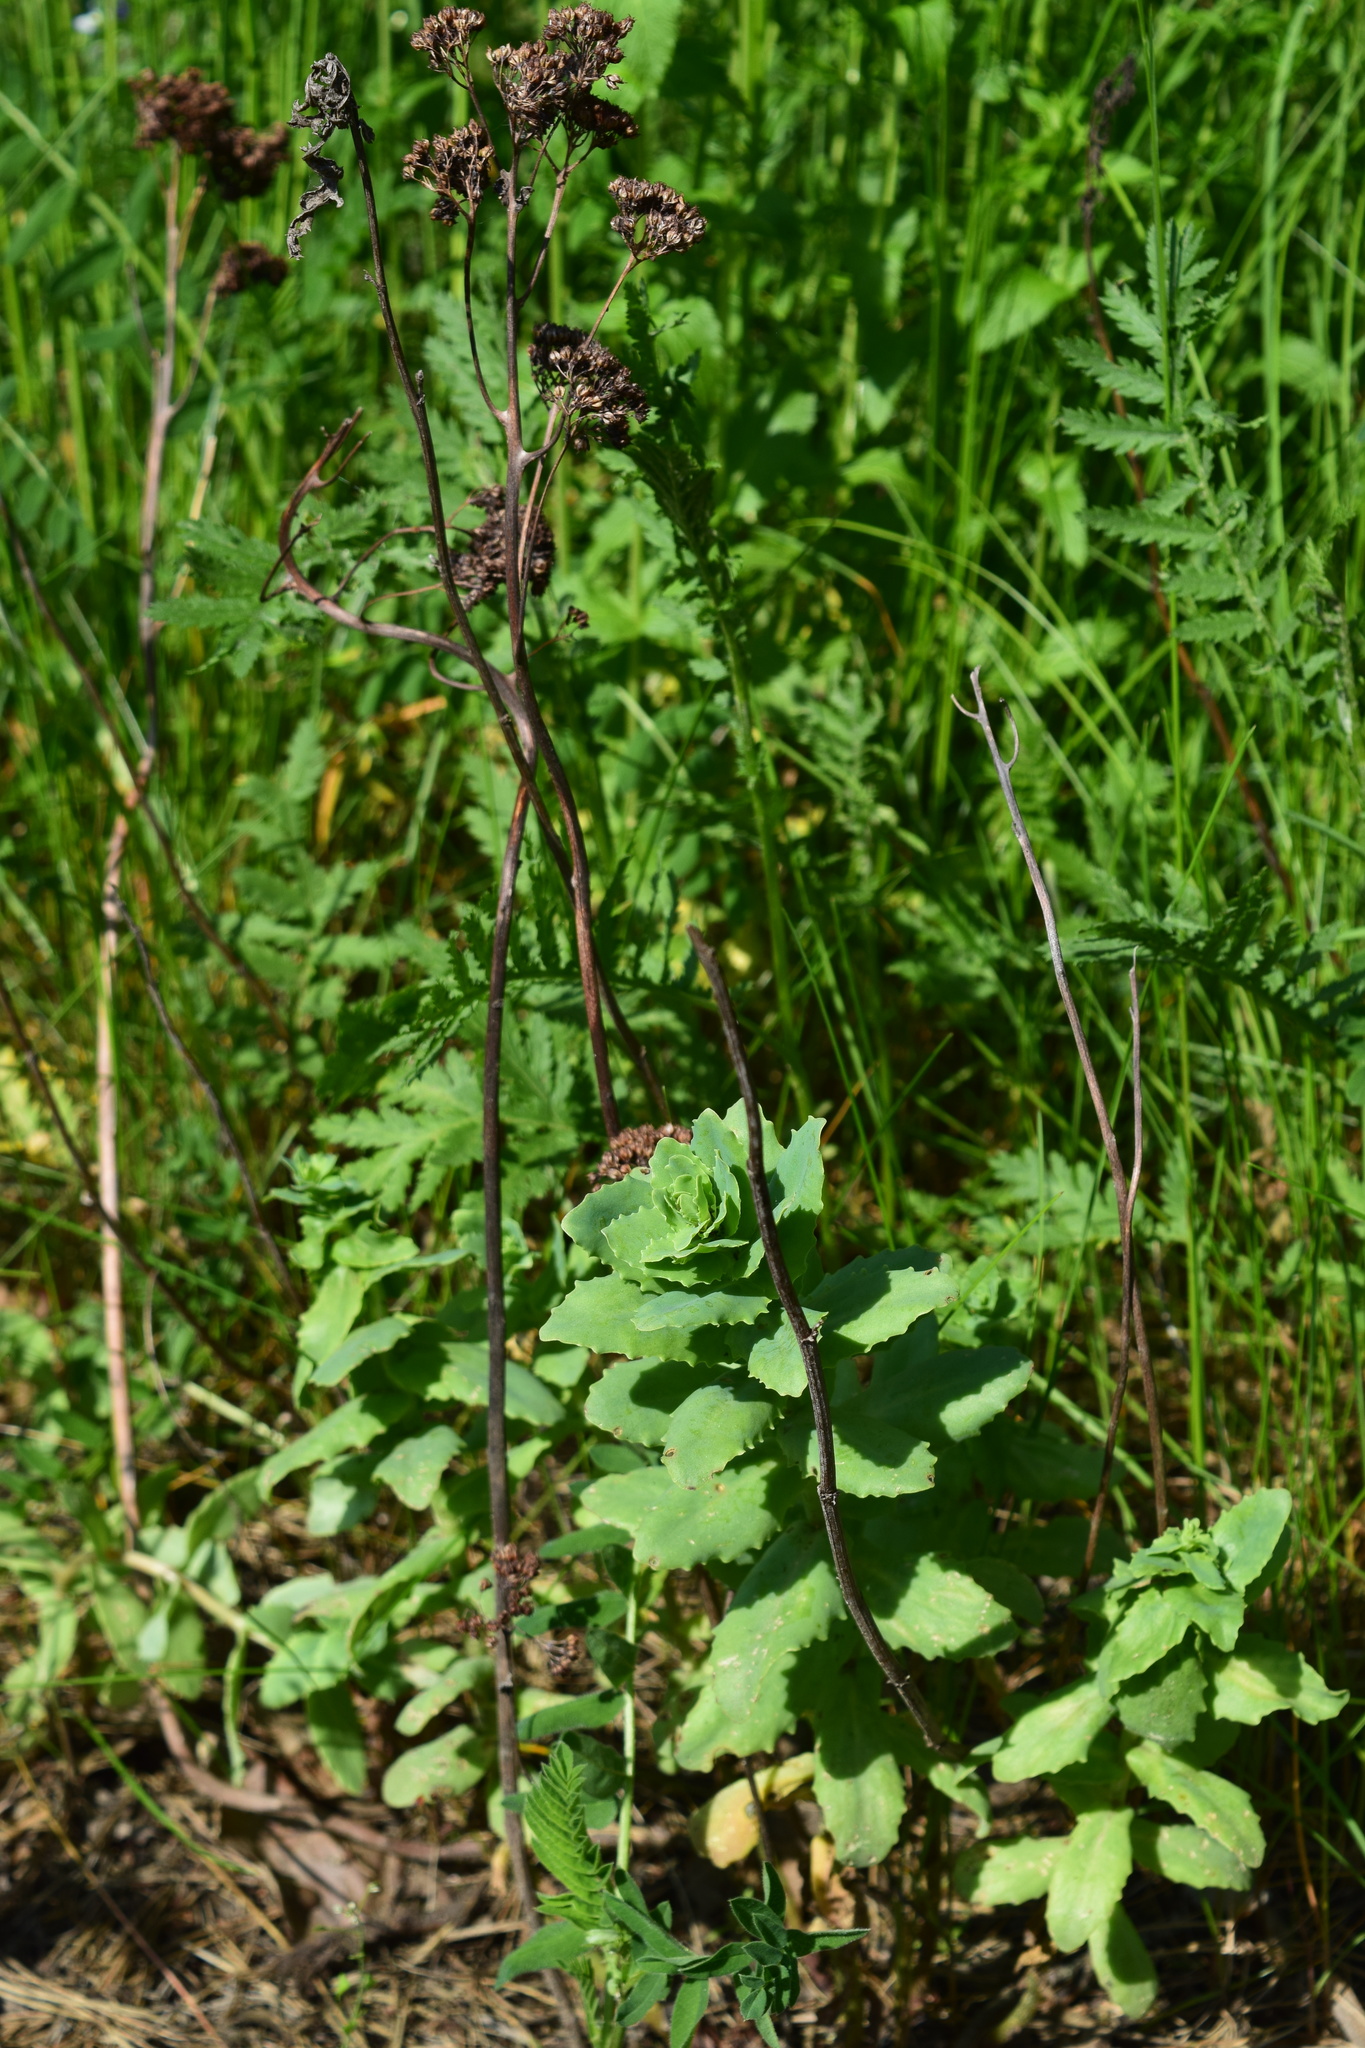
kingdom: Plantae
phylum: Tracheophyta
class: Magnoliopsida
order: Saxifragales
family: Crassulaceae
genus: Hylotelephium
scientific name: Hylotelephium telephium
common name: Live-forever
